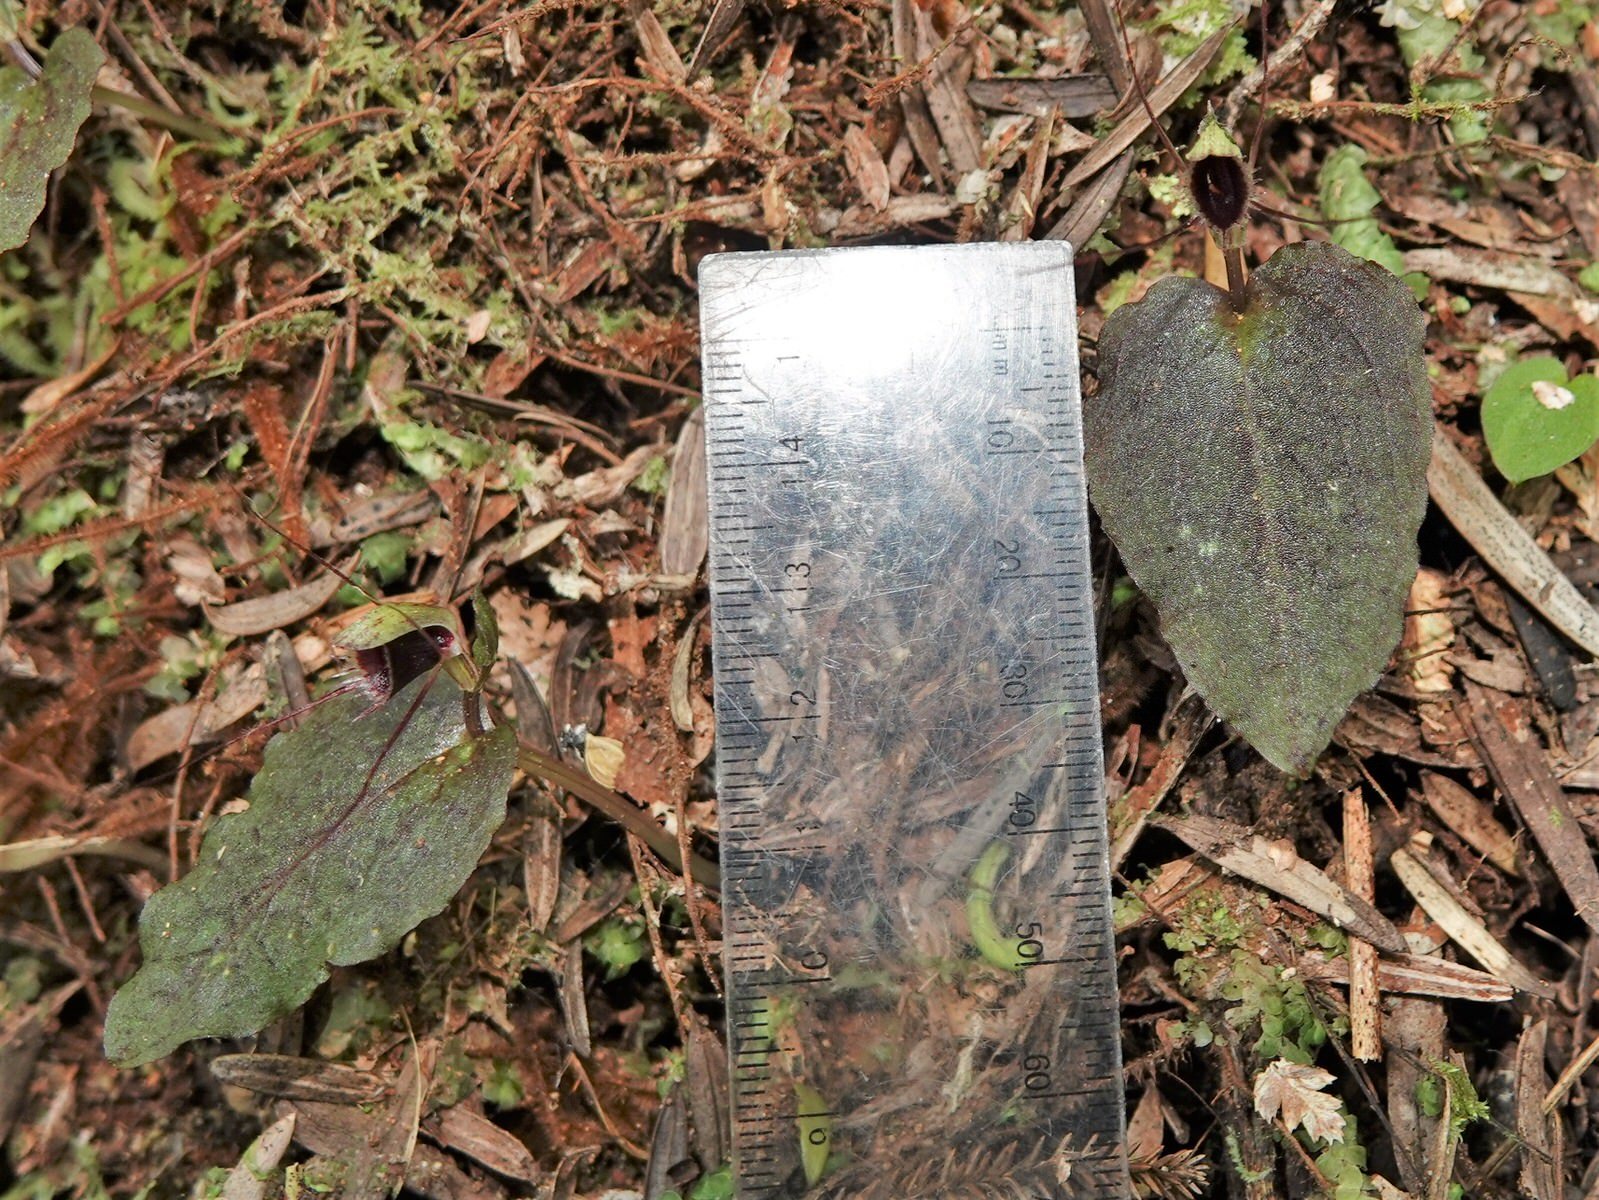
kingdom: Plantae
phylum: Tracheophyta
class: Liliopsida
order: Asparagales
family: Orchidaceae
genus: Corybas
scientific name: Corybas oblongus
